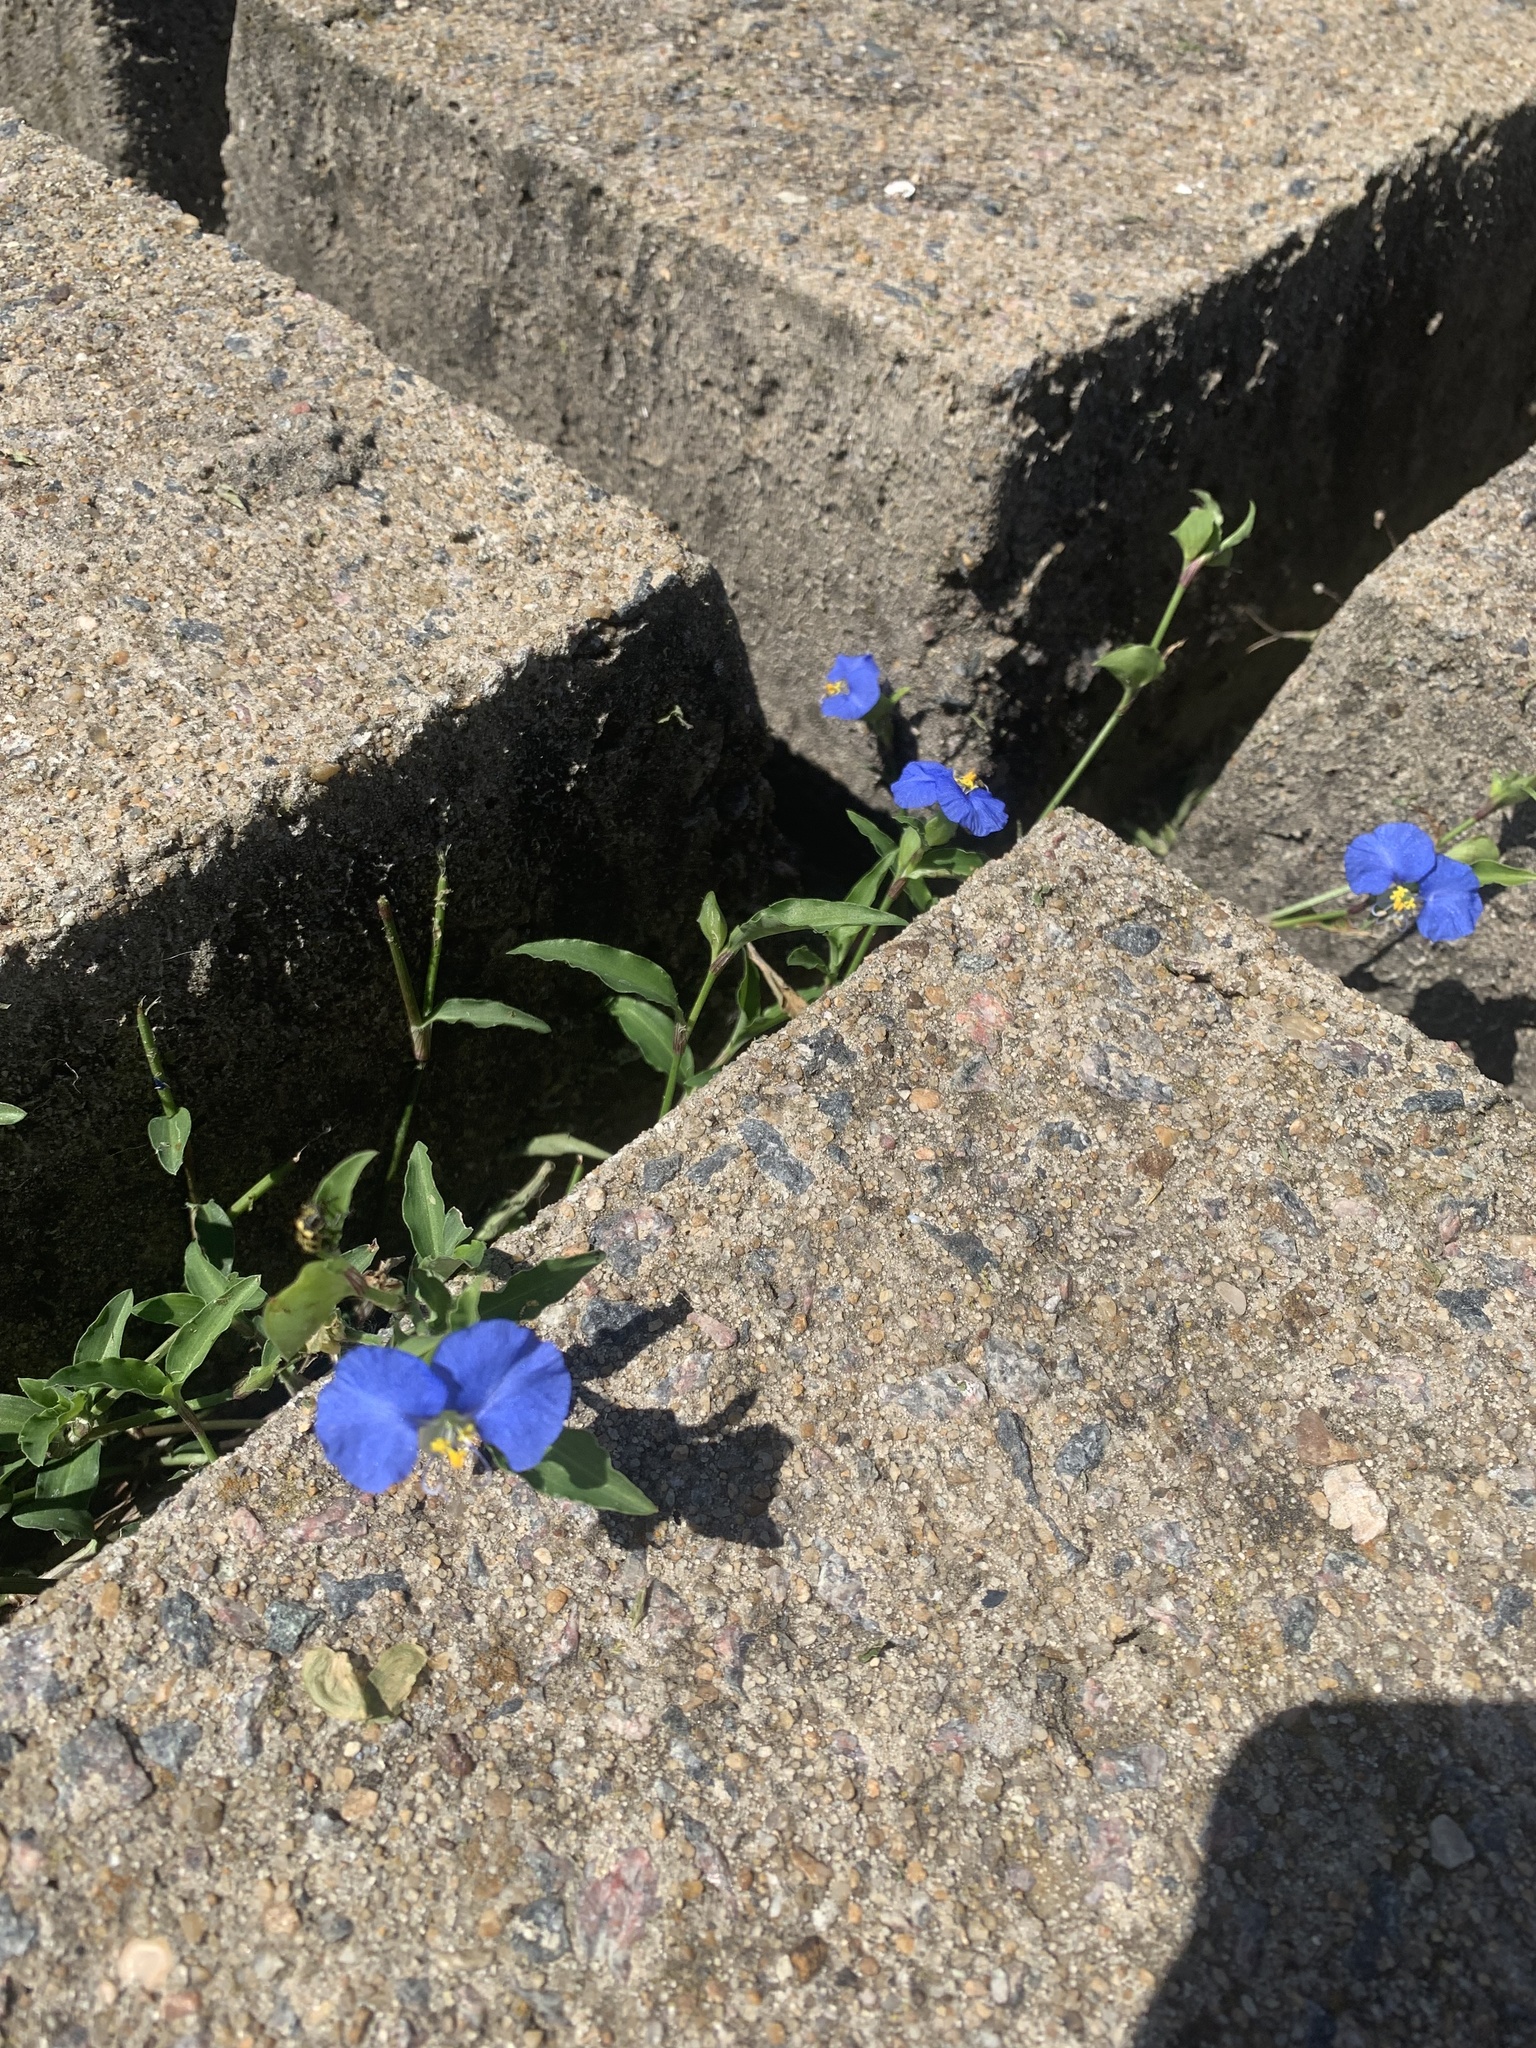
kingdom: Plantae
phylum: Tracheophyta
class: Liliopsida
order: Commelinales
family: Commelinaceae
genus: Commelina
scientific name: Commelina erecta
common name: Blousel blommetjie
